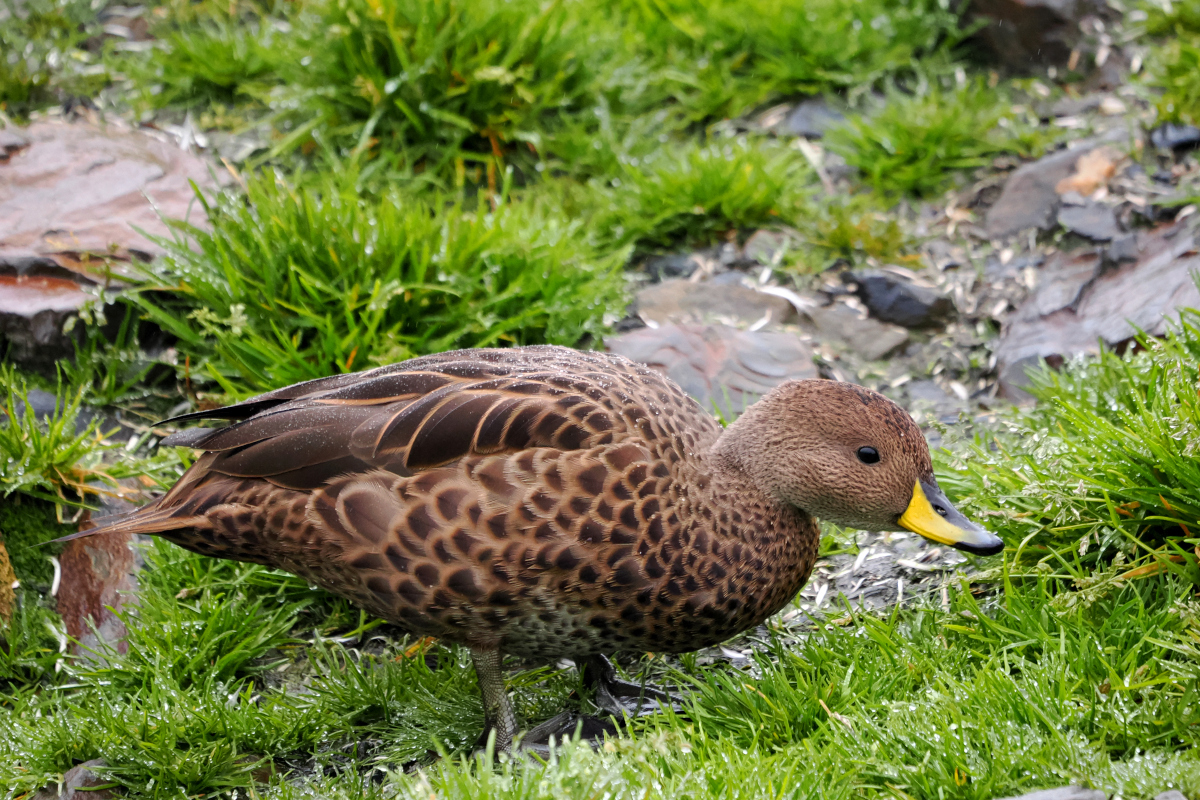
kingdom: Animalia
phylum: Chordata
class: Aves
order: Anseriformes
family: Anatidae
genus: Anas
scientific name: Anas georgica
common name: Yellow-billed pintail
